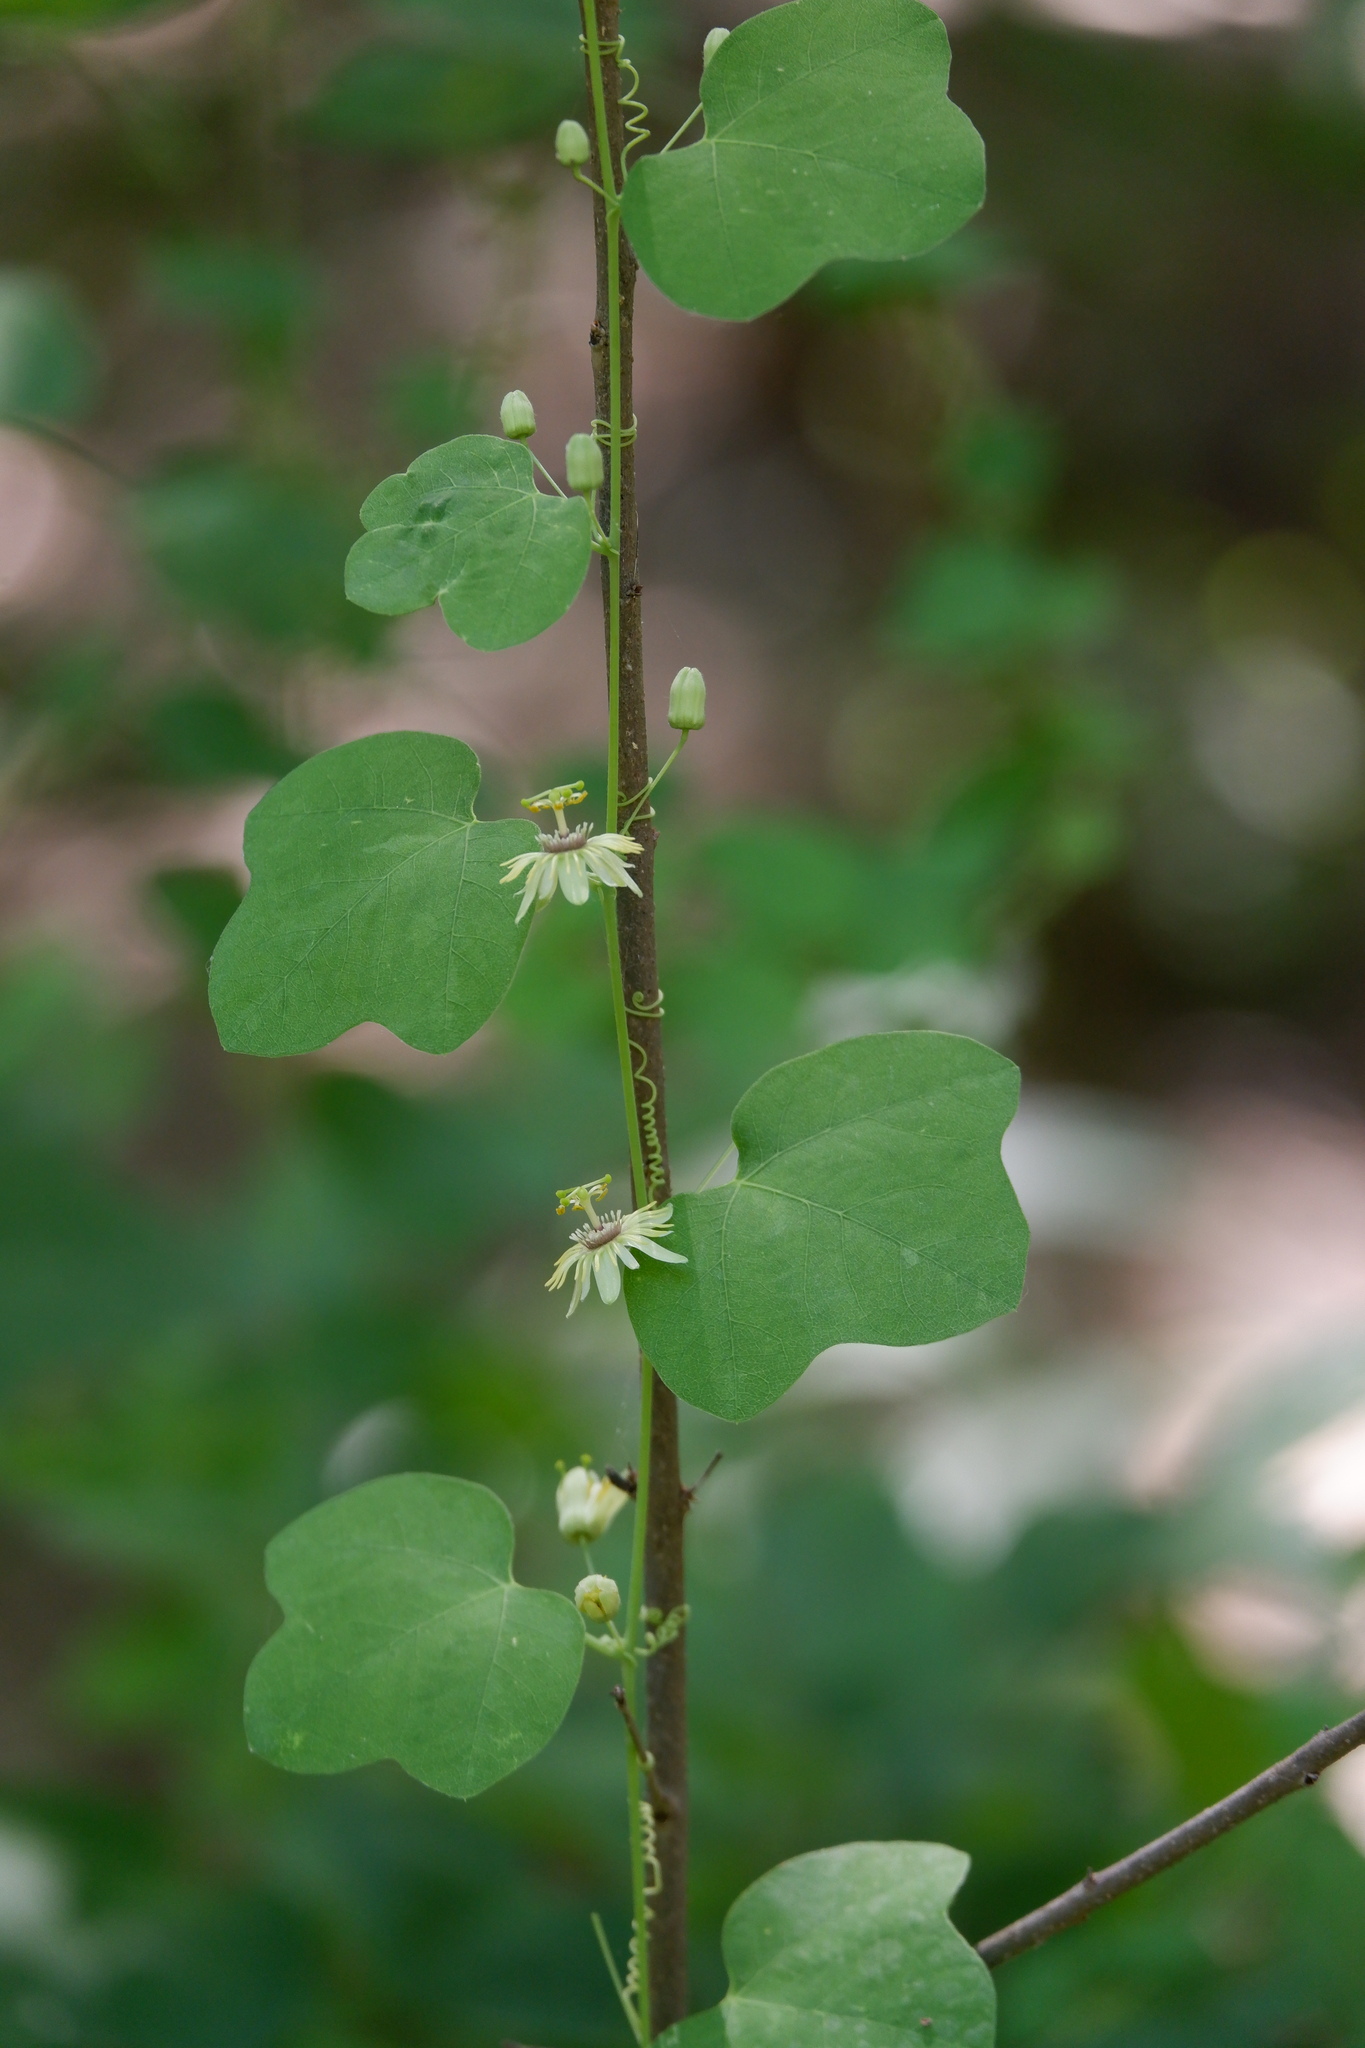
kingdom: Plantae
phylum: Tracheophyta
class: Magnoliopsida
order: Malpighiales
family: Passifloraceae
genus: Passiflora
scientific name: Passiflora lutea
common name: Yellow passionflower
